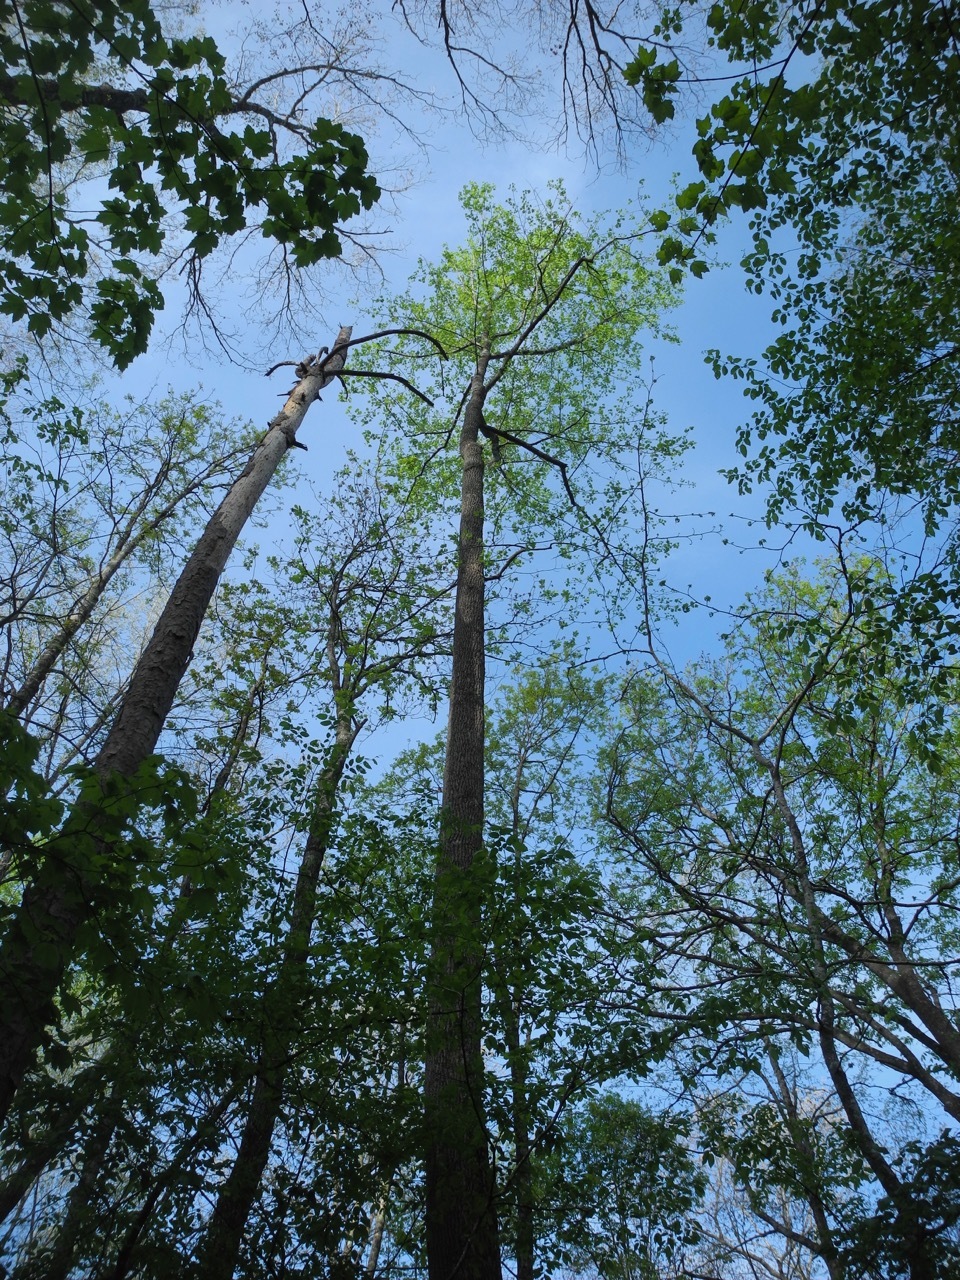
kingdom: Plantae
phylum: Tracheophyta
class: Magnoliopsida
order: Magnoliales
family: Magnoliaceae
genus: Liriodendron
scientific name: Liriodendron tulipifera
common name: Tulip tree
